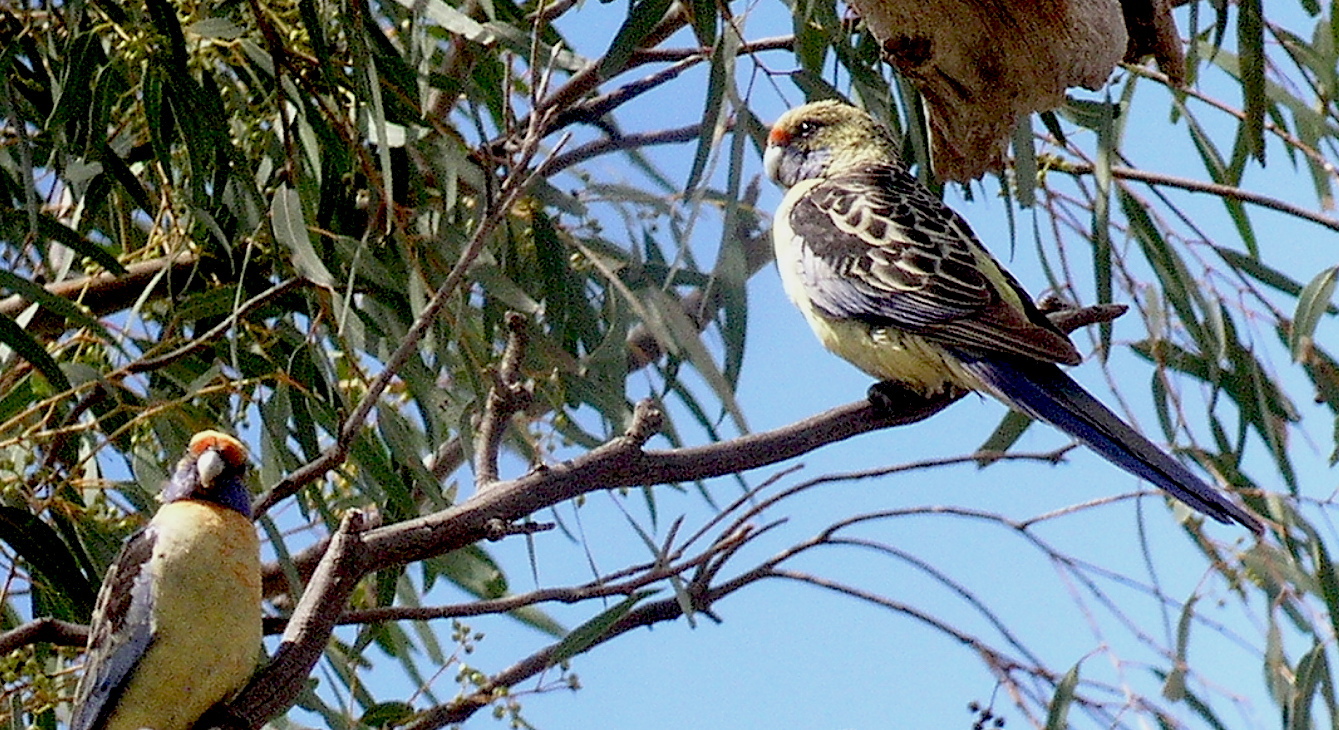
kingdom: Animalia
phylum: Chordata
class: Aves
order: Psittaciformes
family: Psittacidae
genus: Platycercus
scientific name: Platycercus elegans
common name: Crimson rosella
